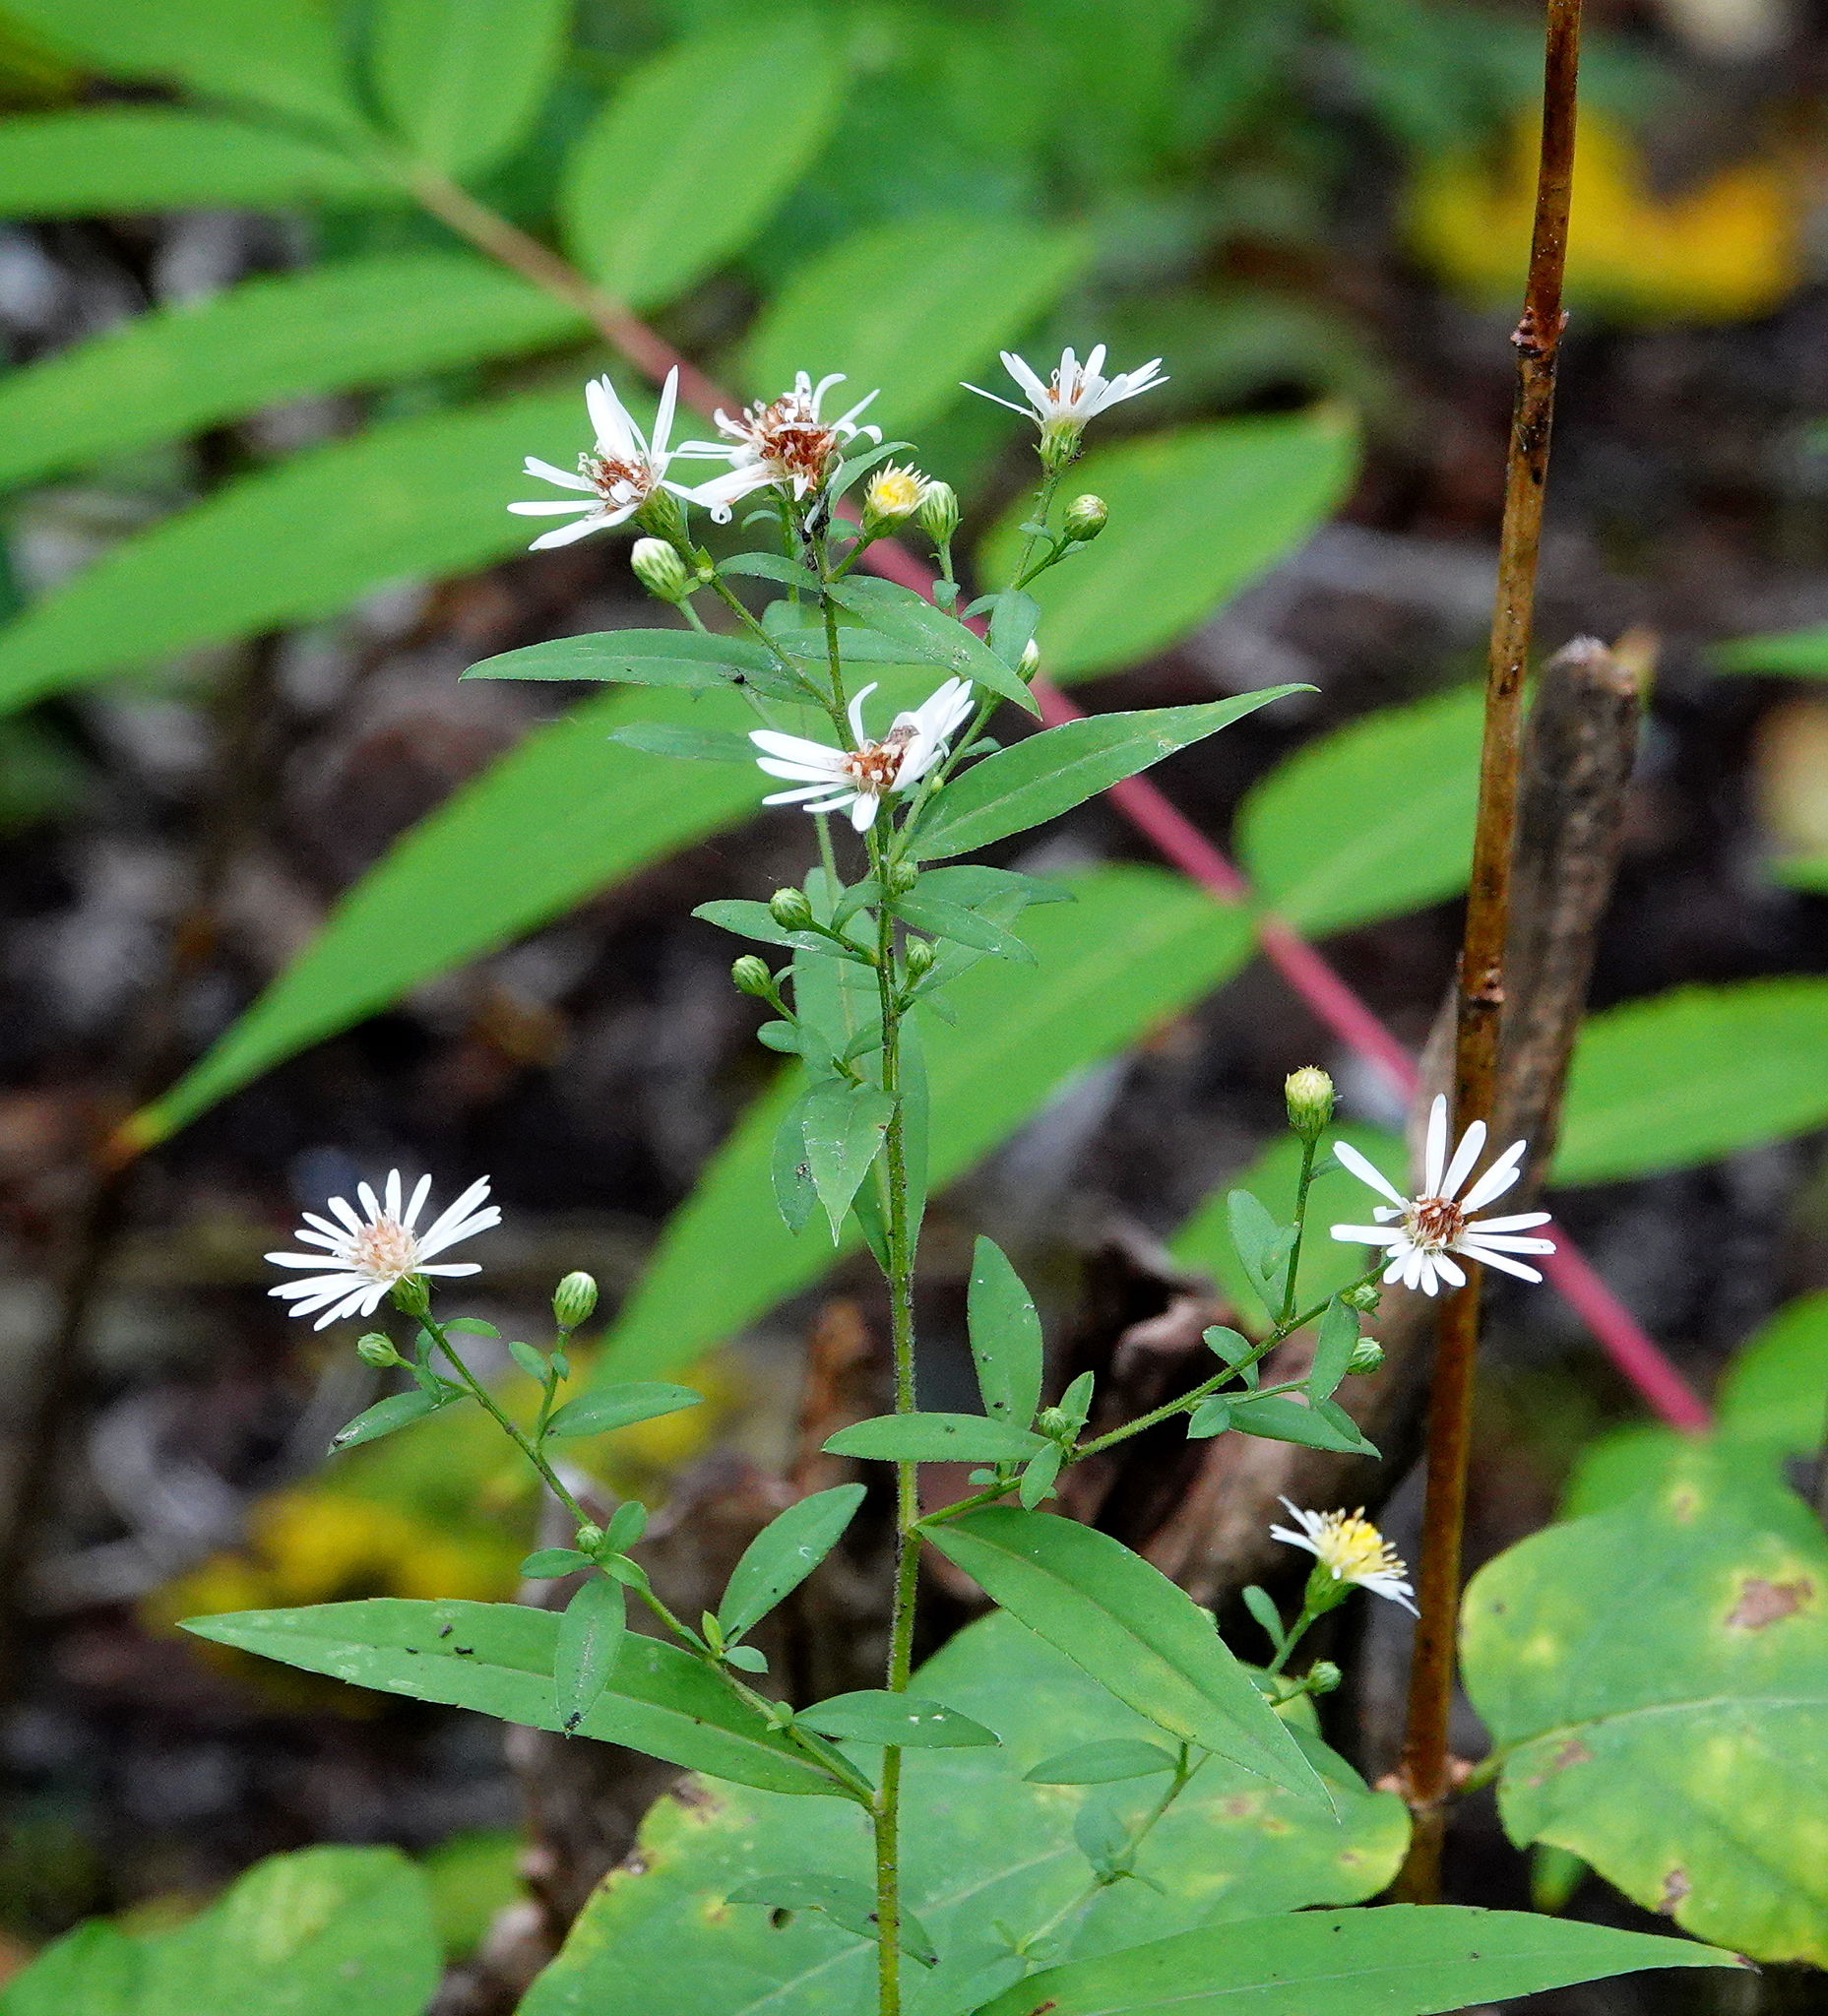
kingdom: Plantae
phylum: Tracheophyta
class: Magnoliopsida
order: Asterales
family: Asteraceae
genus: Symphyotrichum
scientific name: Symphyotrichum lanceolatum
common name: Panicled aster
